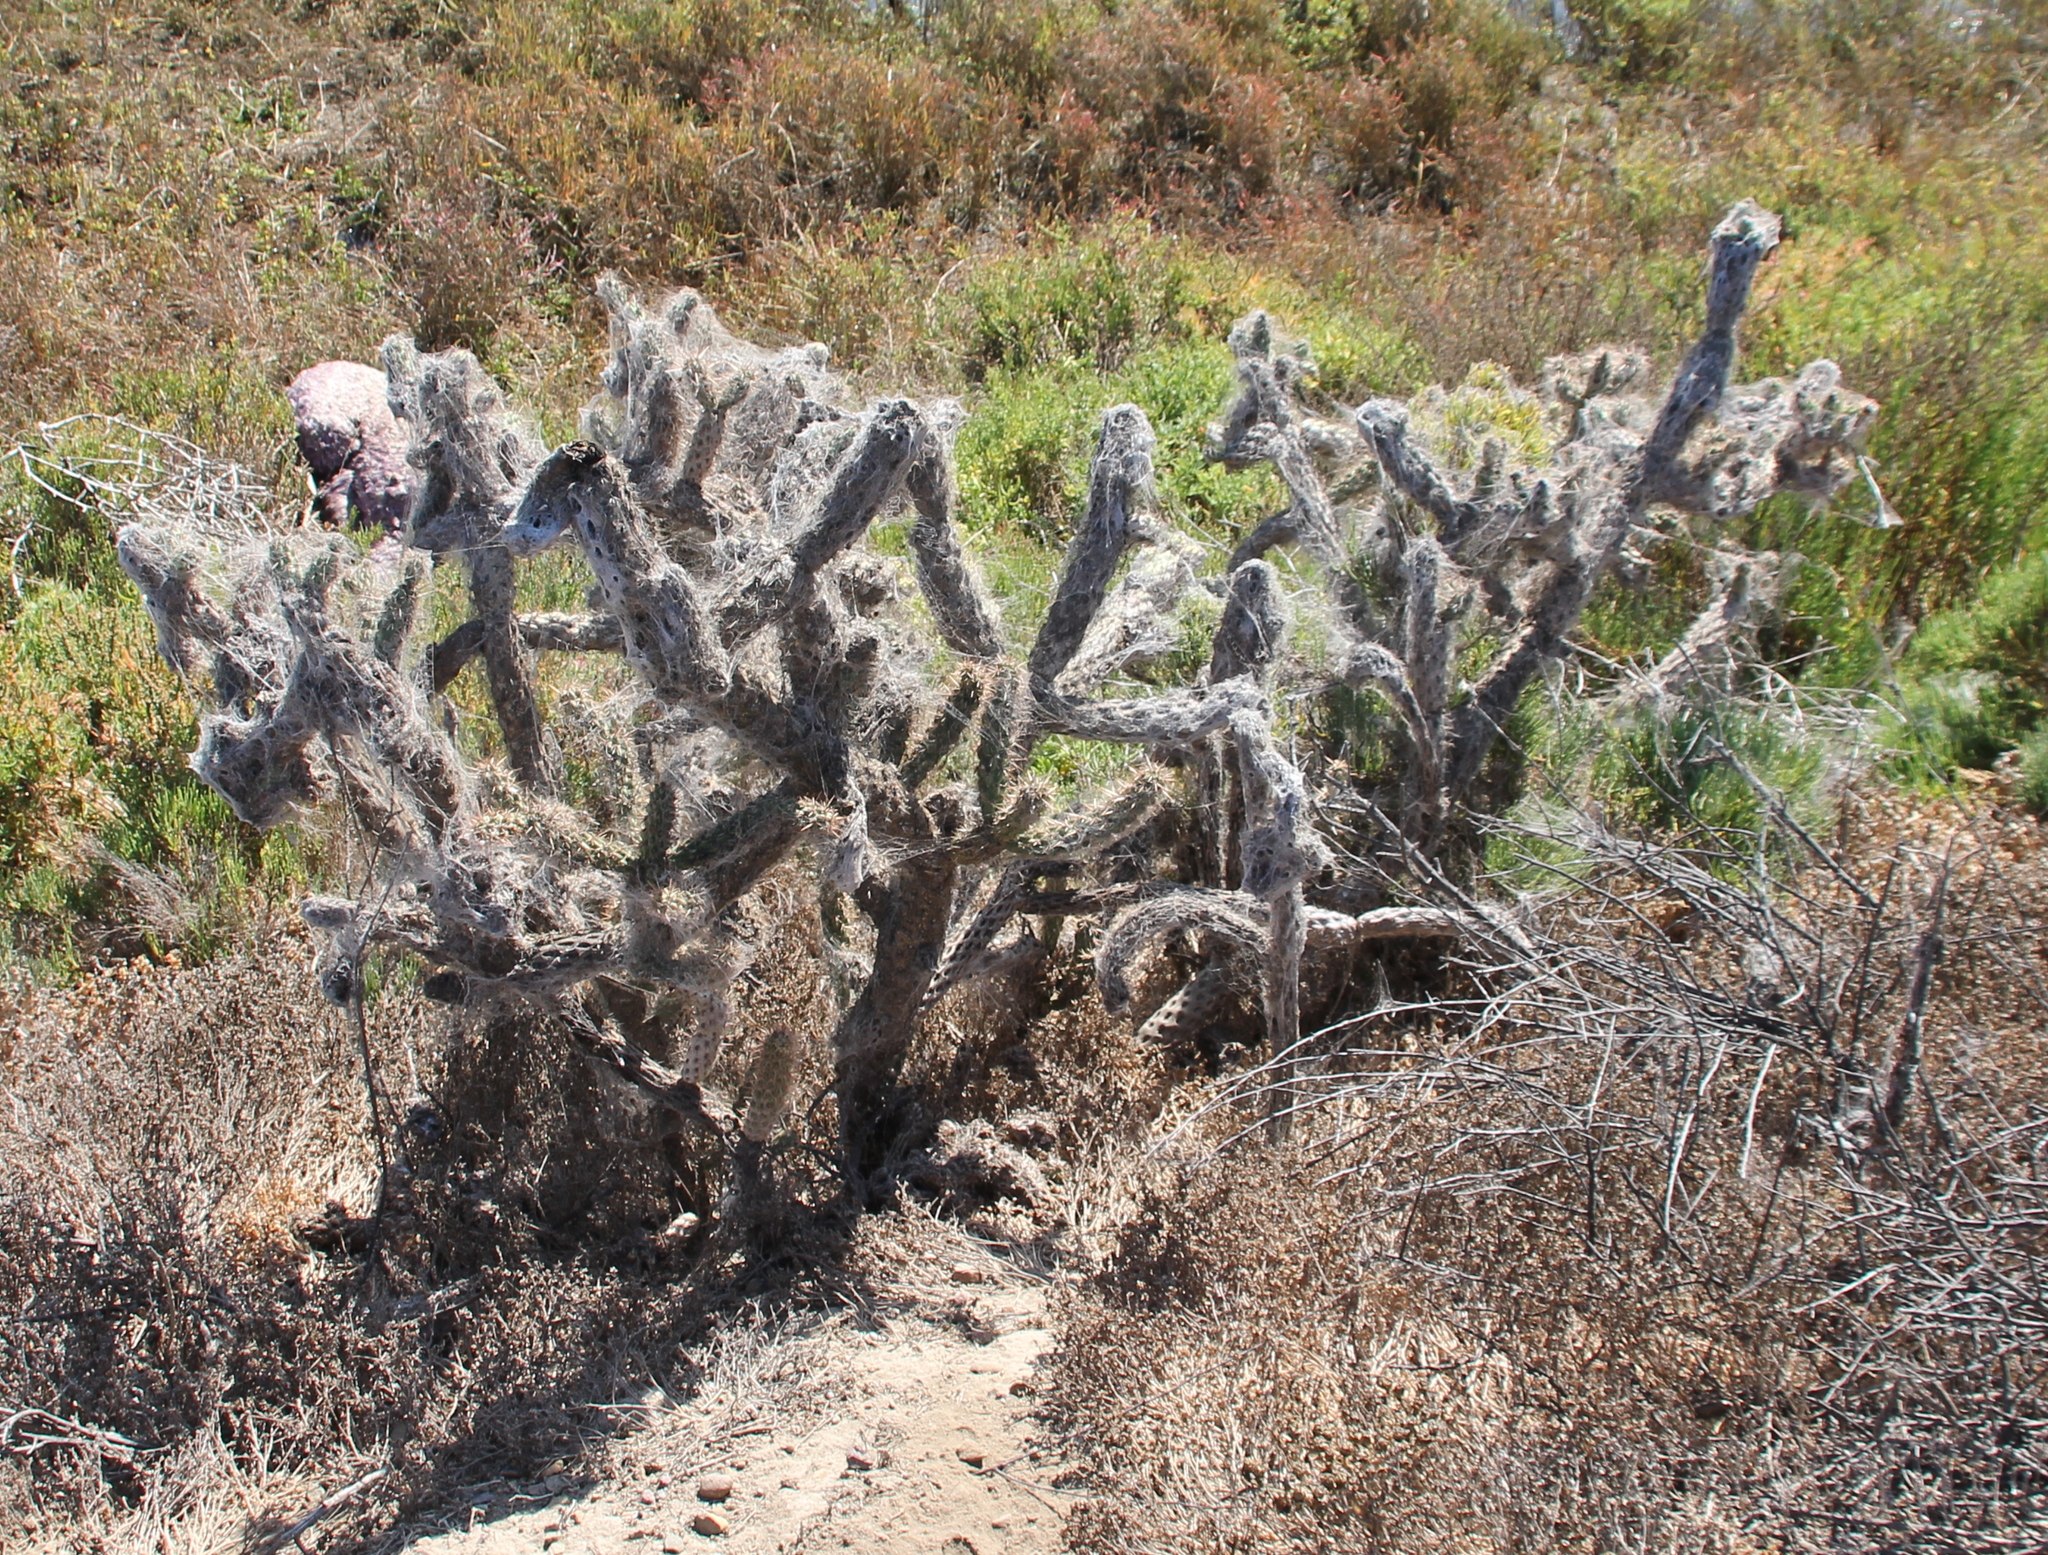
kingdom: Plantae
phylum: Tracheophyta
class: Magnoliopsida
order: Caryophyllales
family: Cactaceae
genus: Cylindropuntia
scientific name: Cylindropuntia prolifera
